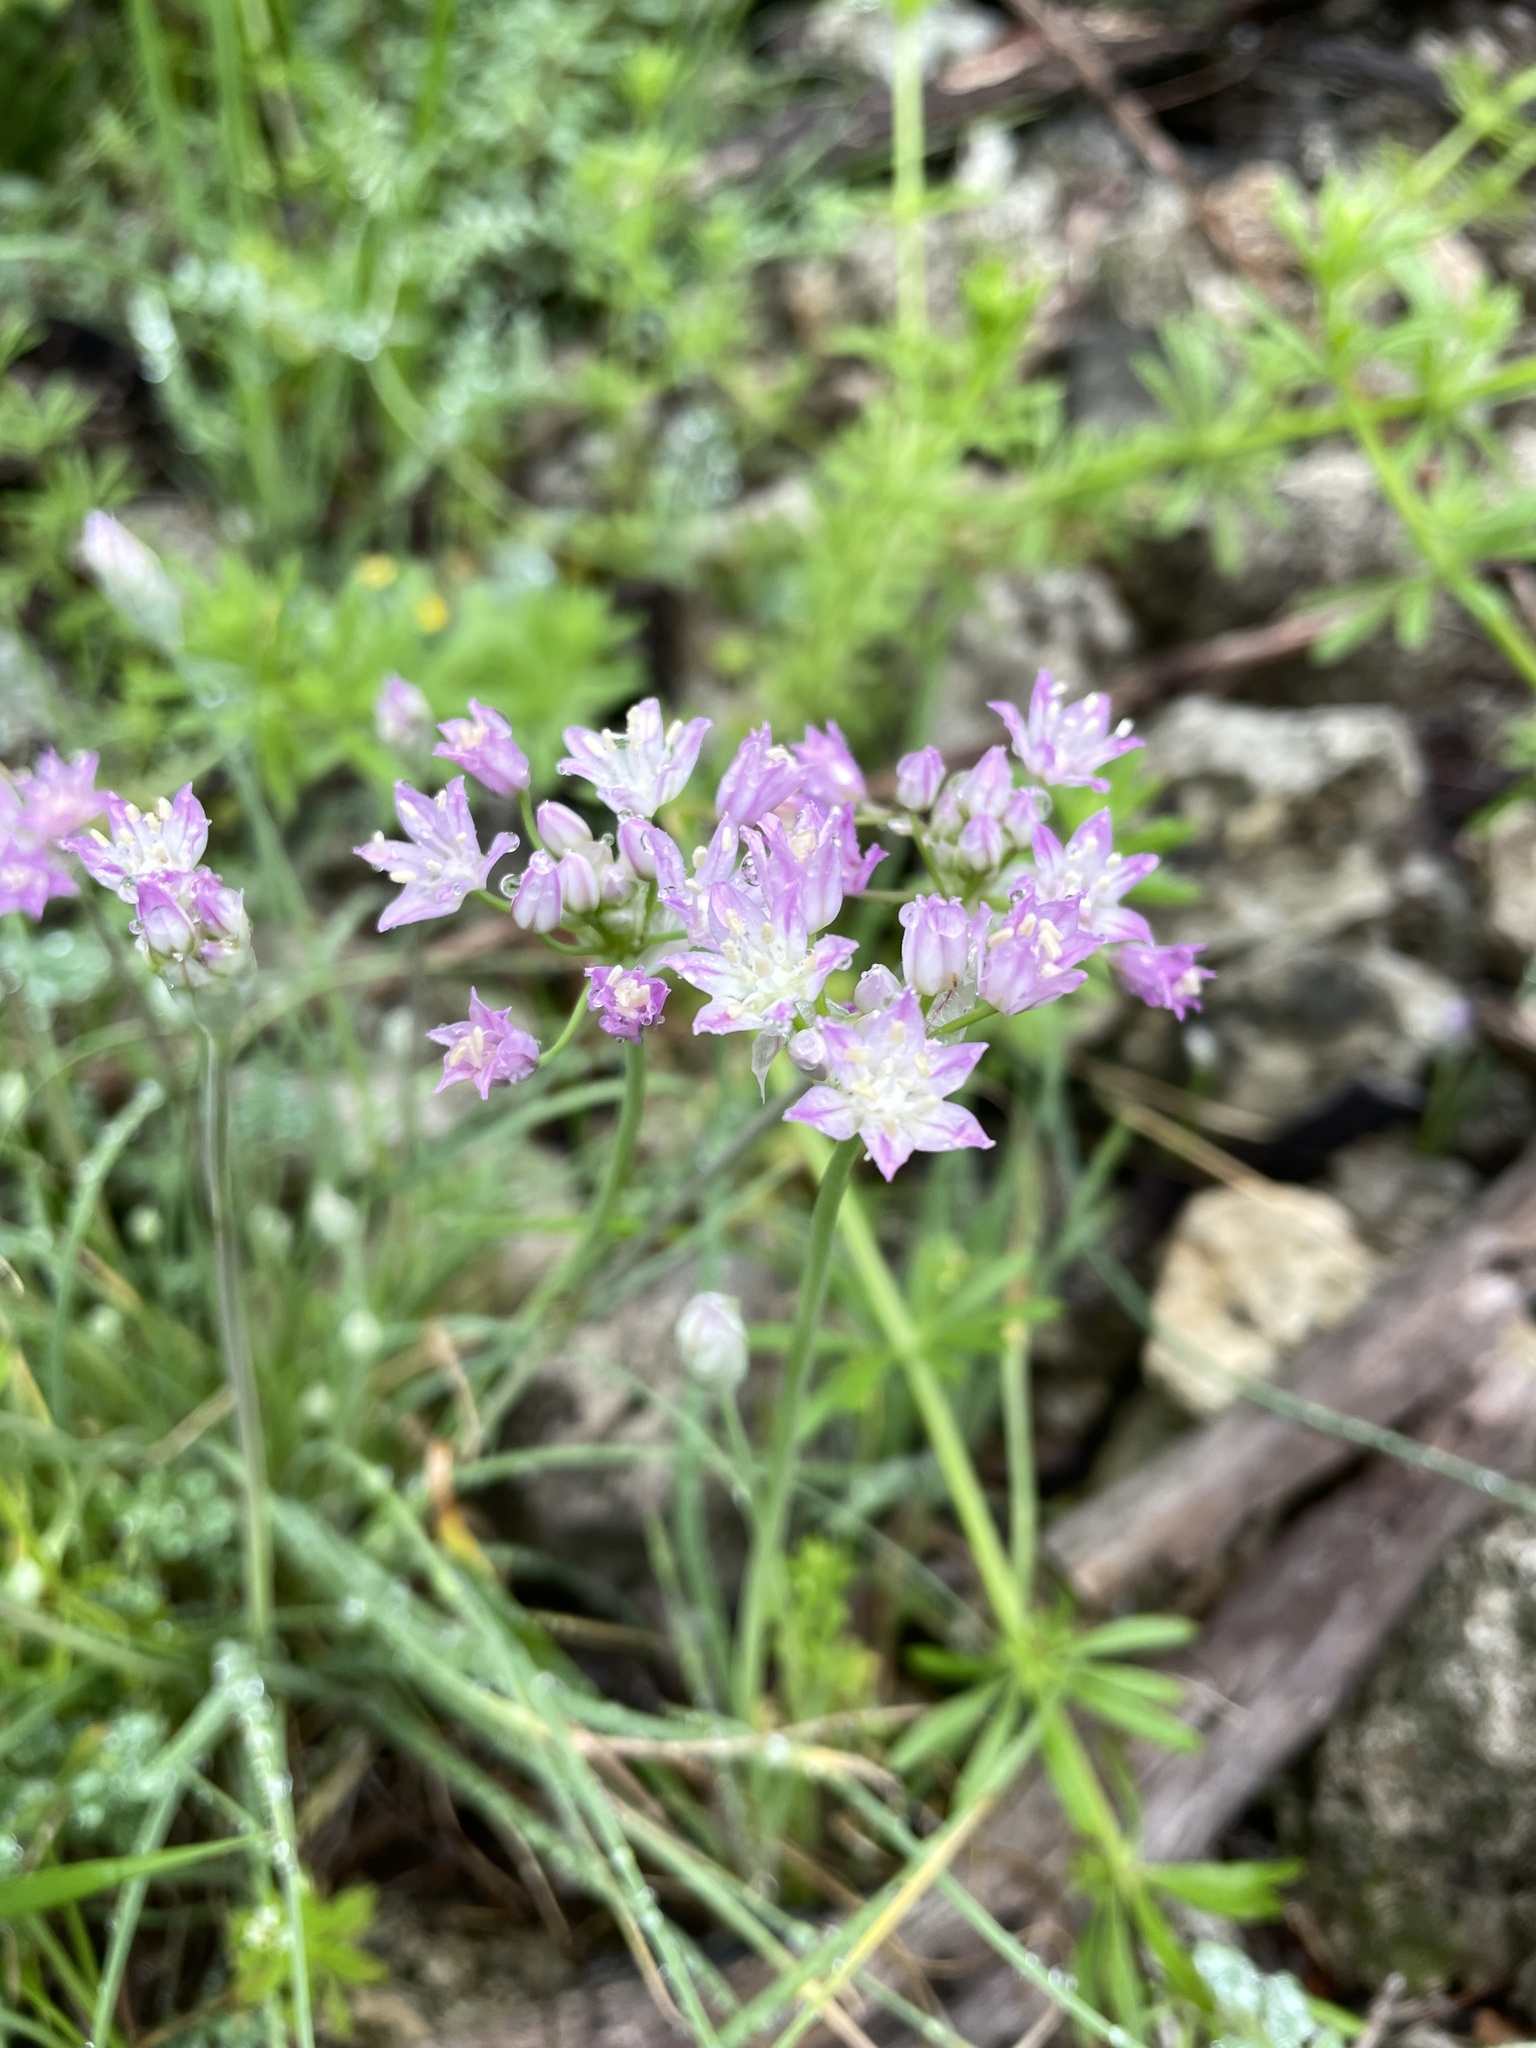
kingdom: Plantae
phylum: Tracheophyta
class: Liliopsida
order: Asparagales
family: Amaryllidaceae
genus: Allium
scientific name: Allium drummondii
